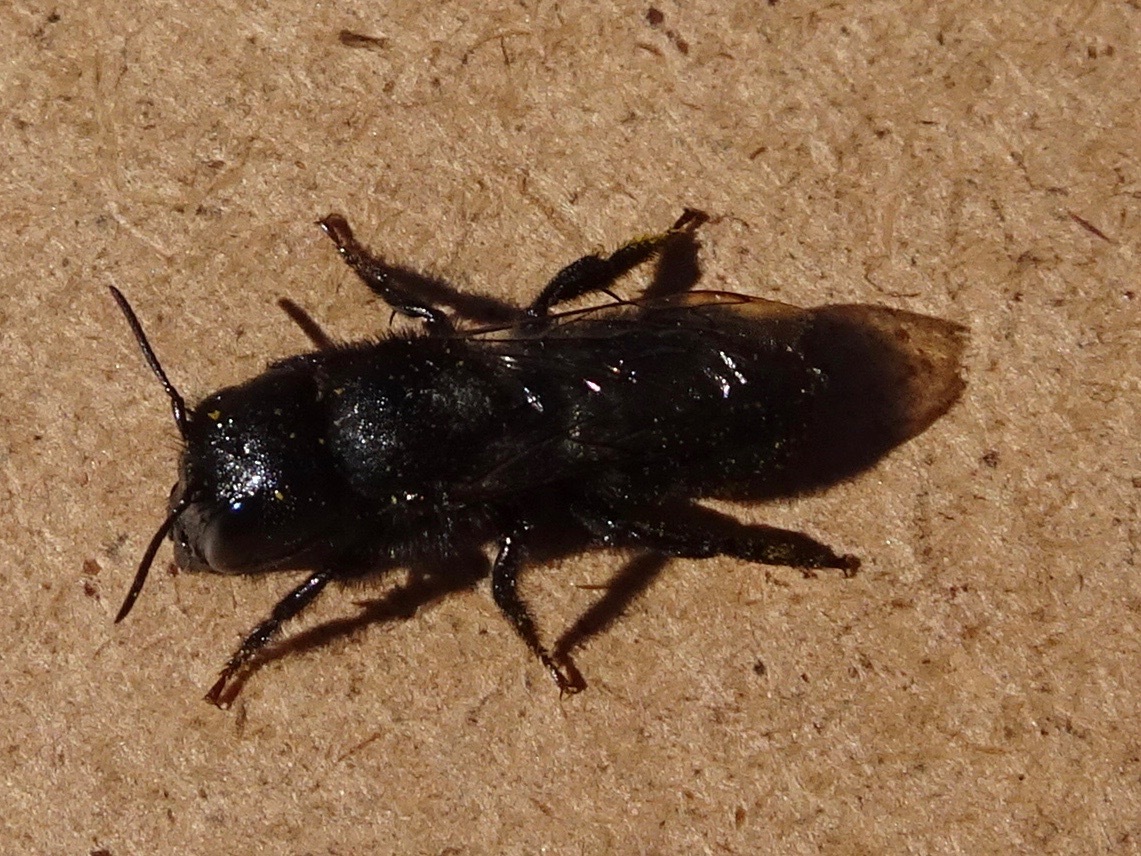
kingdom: Animalia
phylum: Arthropoda
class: Insecta
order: Hymenoptera
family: Megachilidae
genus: Osmia
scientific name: Osmia montana
